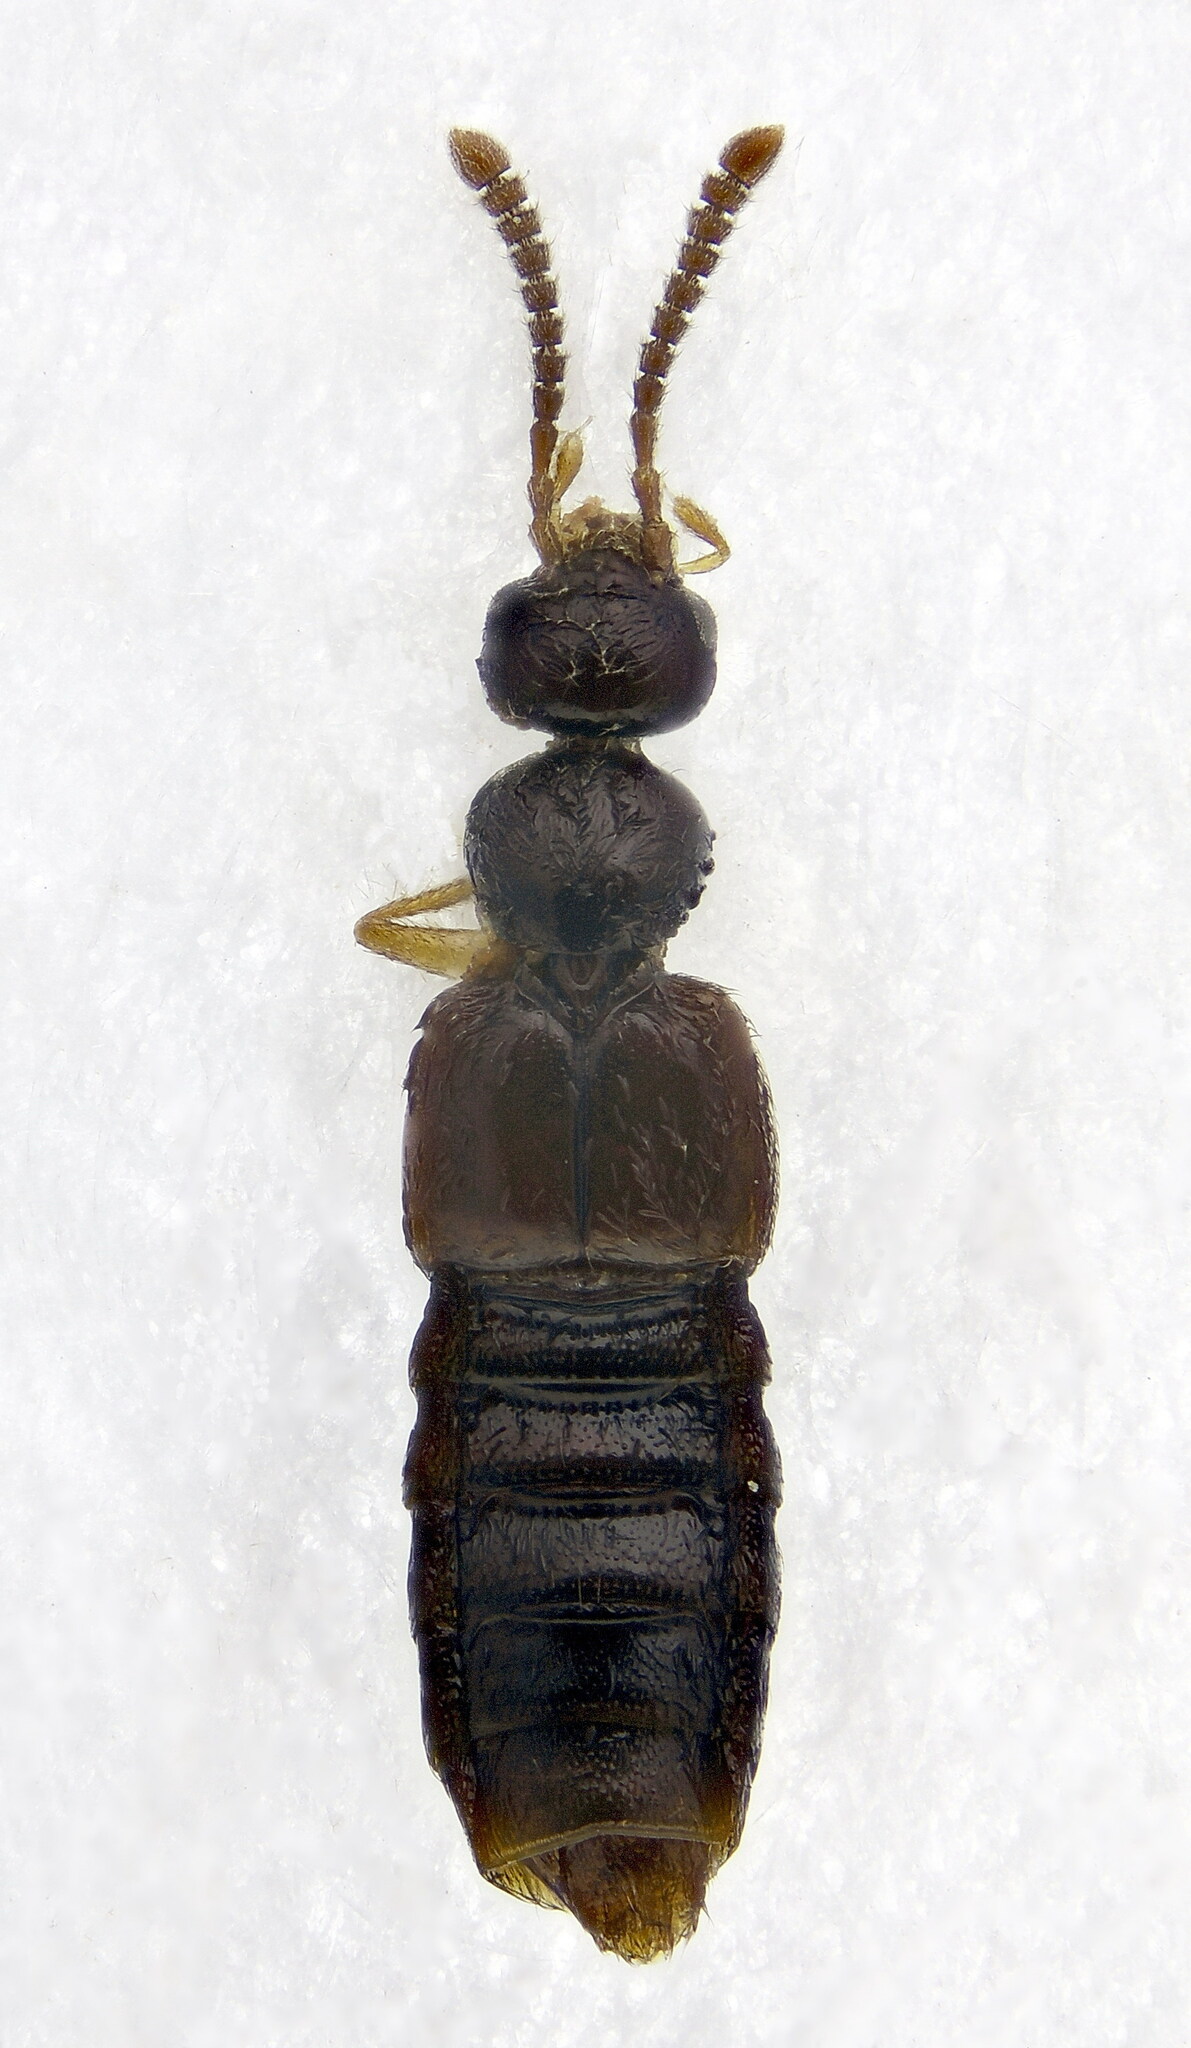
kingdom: Animalia
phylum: Arthropoda
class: Insecta
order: Coleoptera
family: Staphylinidae
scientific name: Staphylinidae
